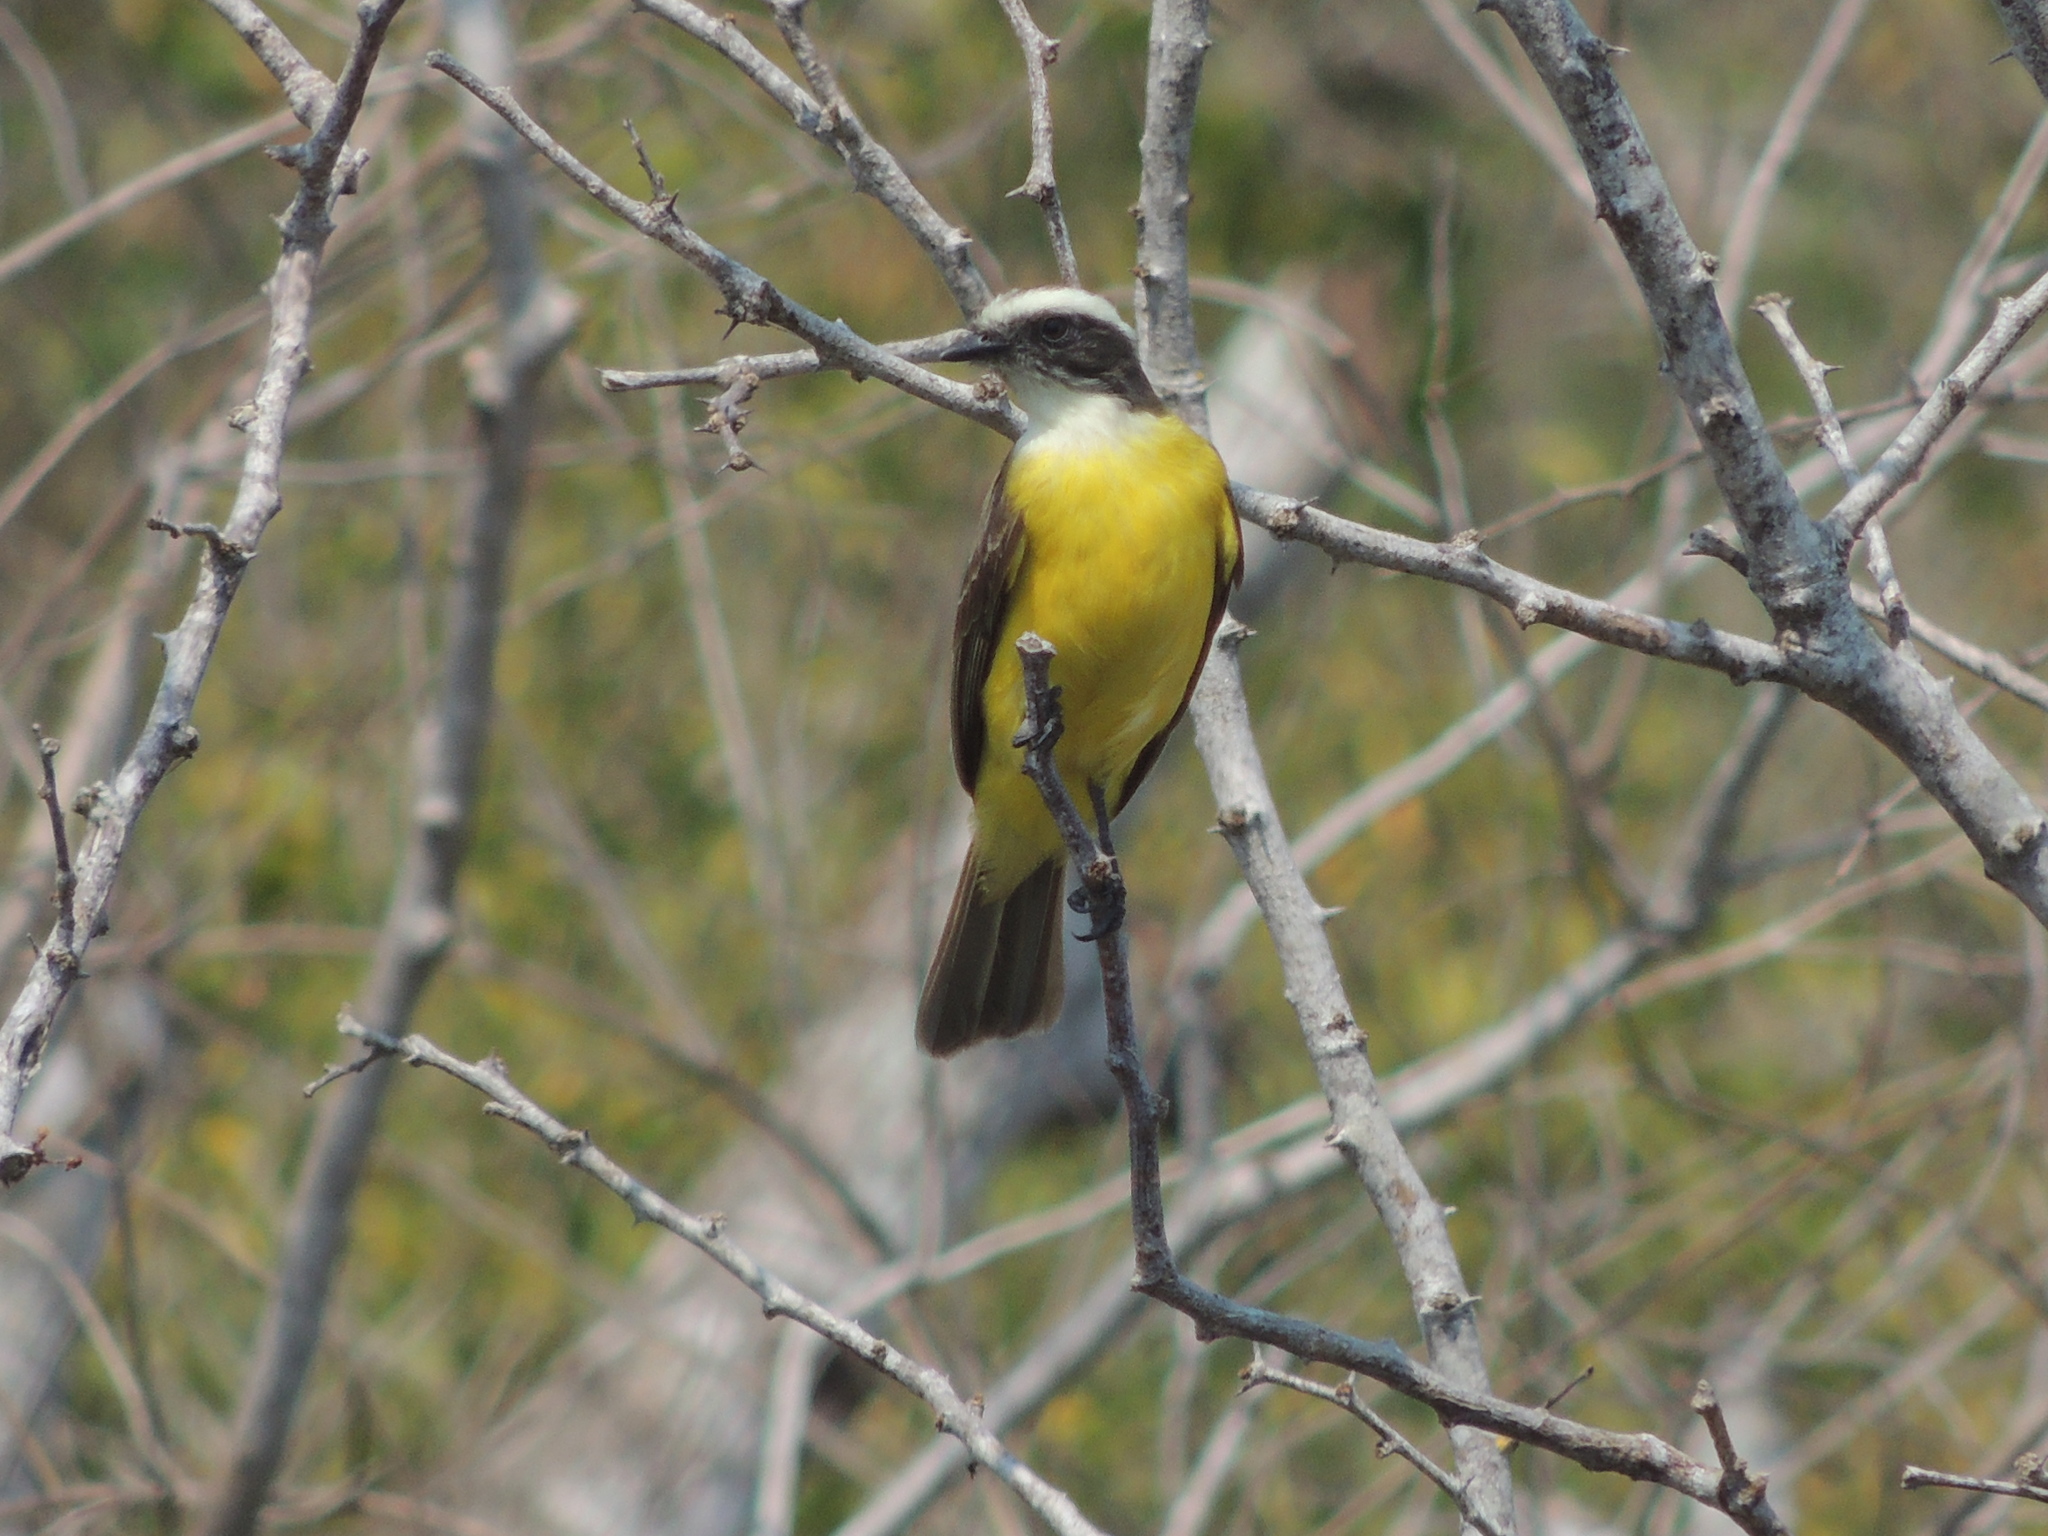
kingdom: Animalia
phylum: Chordata
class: Aves
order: Passeriformes
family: Tyrannidae
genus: Myiozetetes
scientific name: Myiozetetes similis
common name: Social flycatcher
